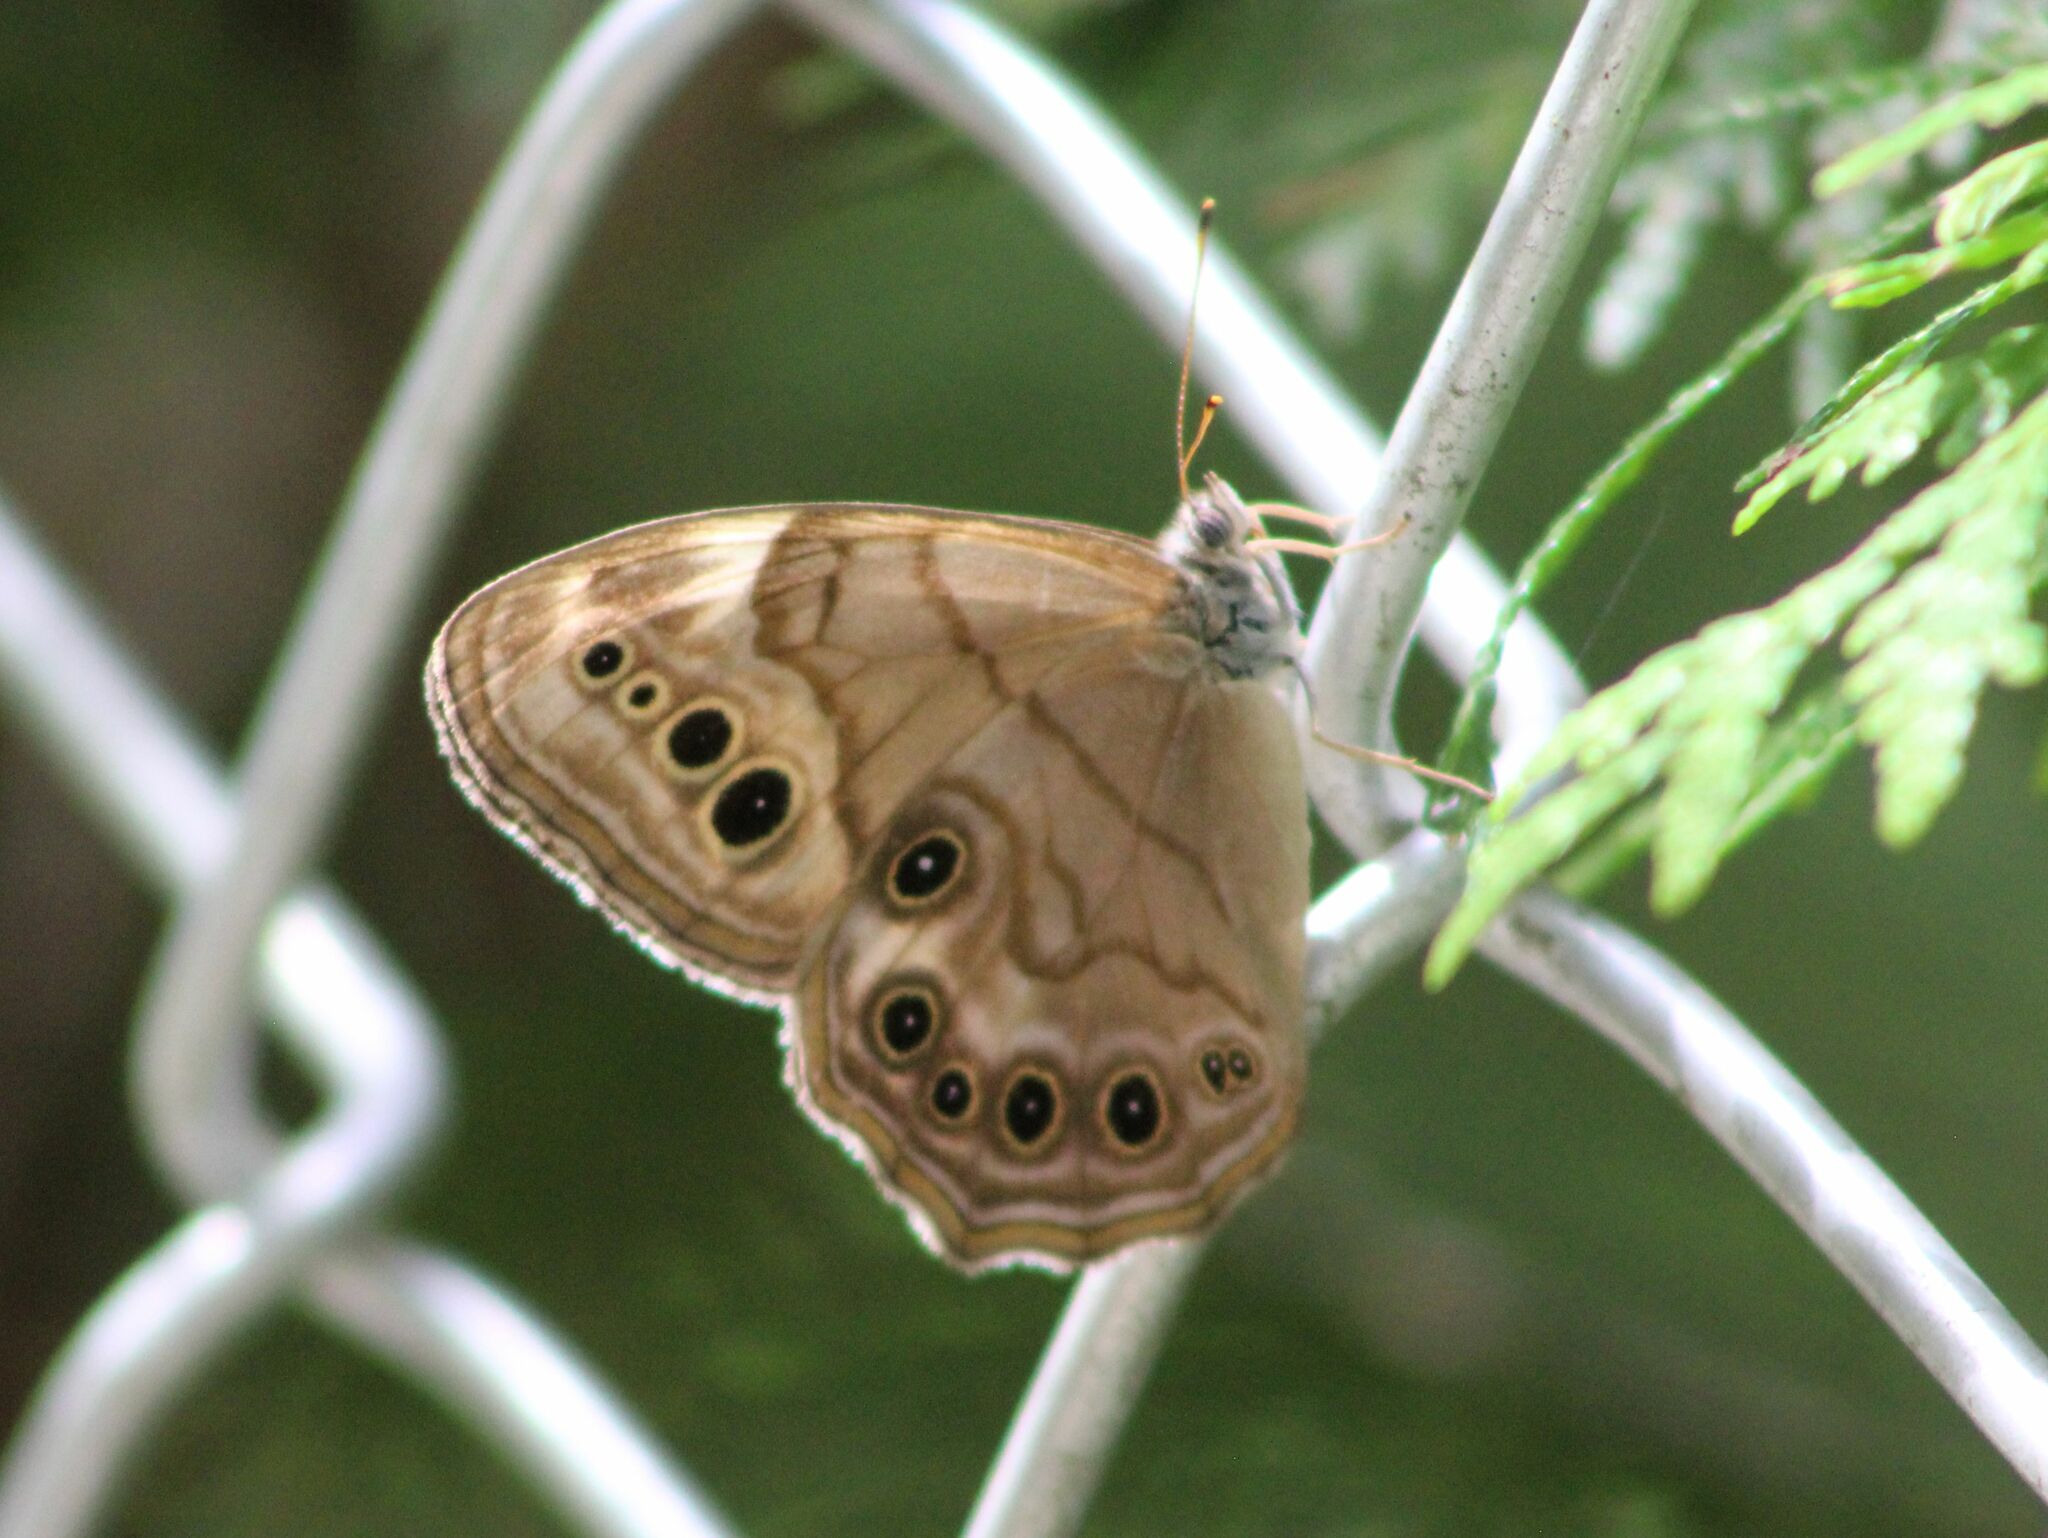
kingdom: Animalia
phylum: Arthropoda
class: Insecta
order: Lepidoptera
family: Nymphalidae
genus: Lethe
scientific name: Lethe anthedon
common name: Northern pearly-eye
